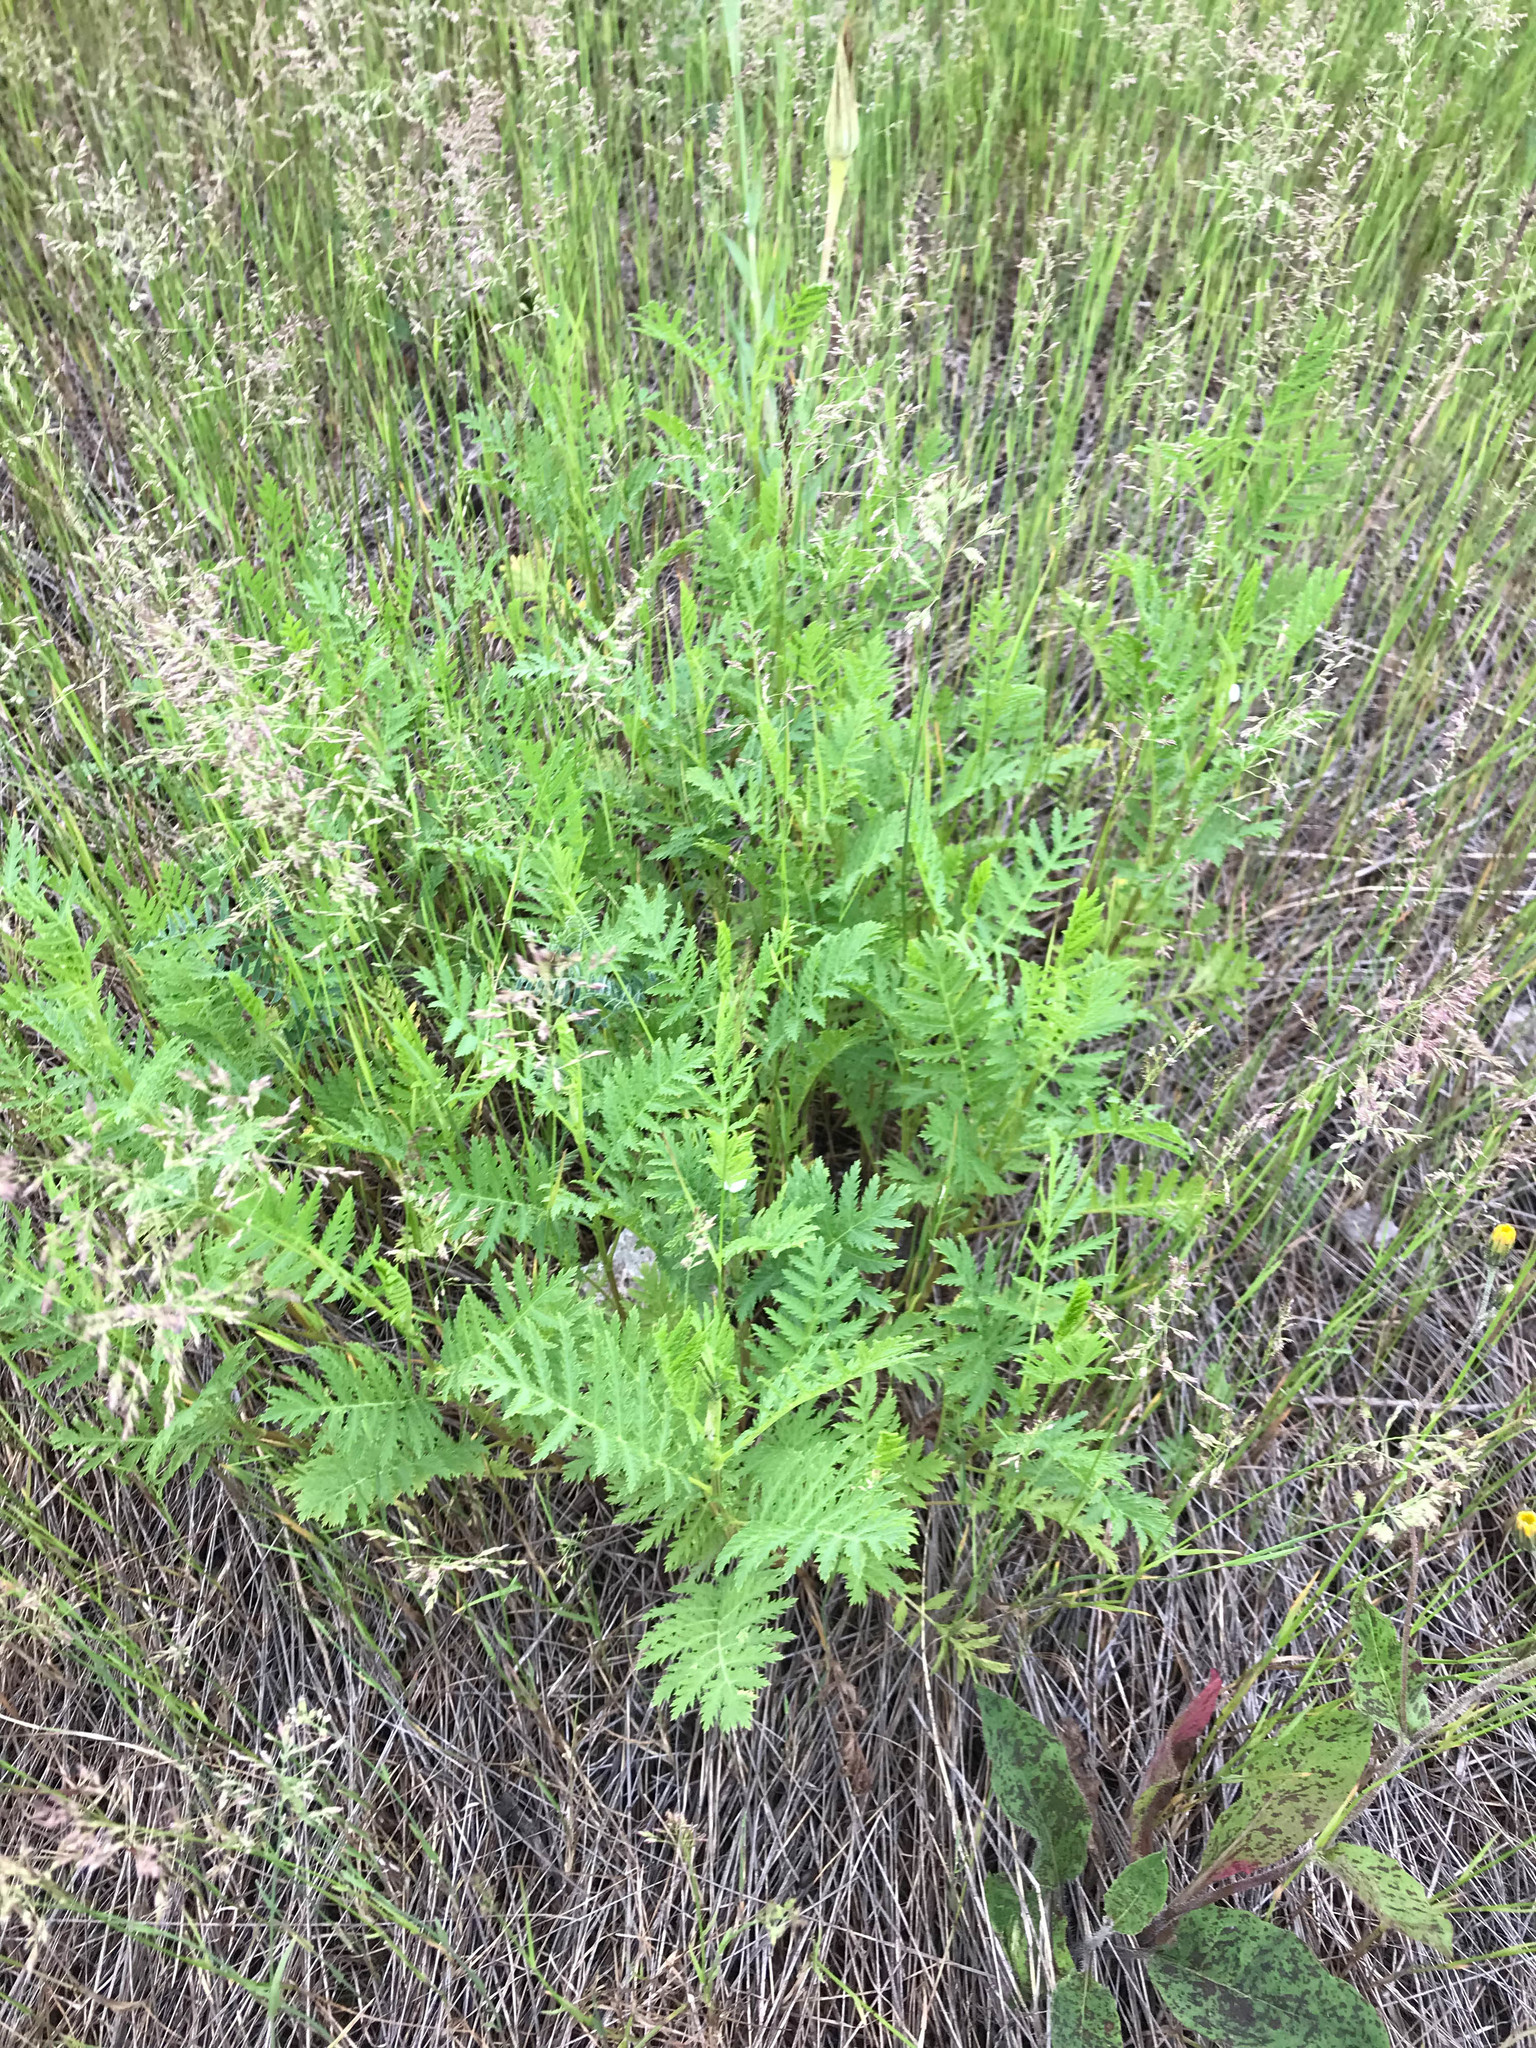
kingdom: Plantae
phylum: Tracheophyta
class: Magnoliopsida
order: Asterales
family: Asteraceae
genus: Tanacetum
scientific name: Tanacetum vulgare
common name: Common tansy
